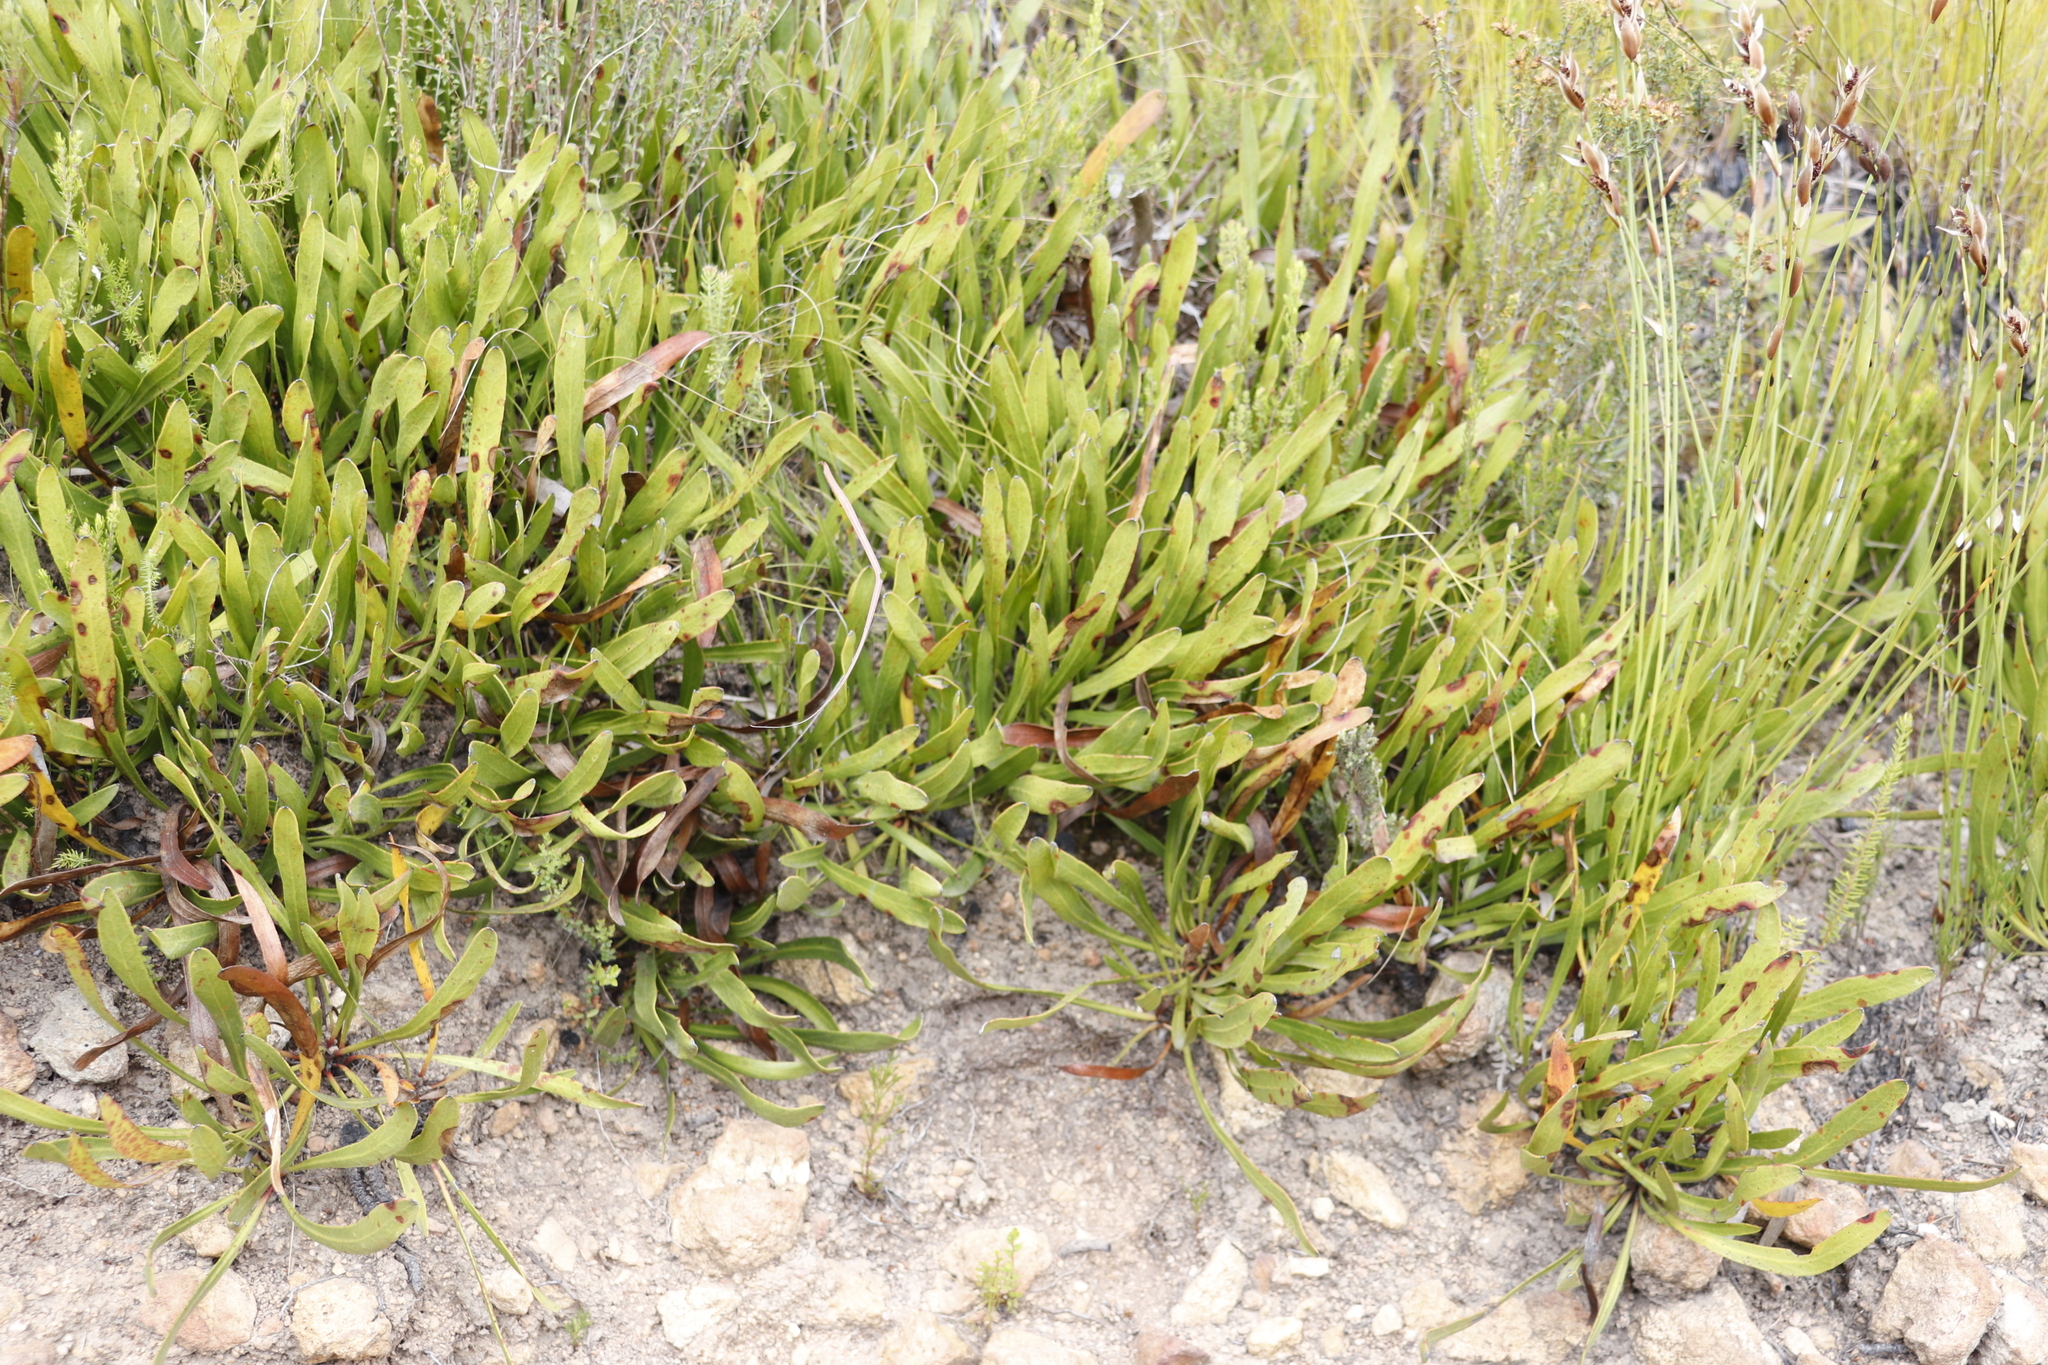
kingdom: Plantae
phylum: Tracheophyta
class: Magnoliopsida
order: Proteales
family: Proteaceae
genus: Protea
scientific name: Protea scabra
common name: Sandpaper-leaf sugarbush
